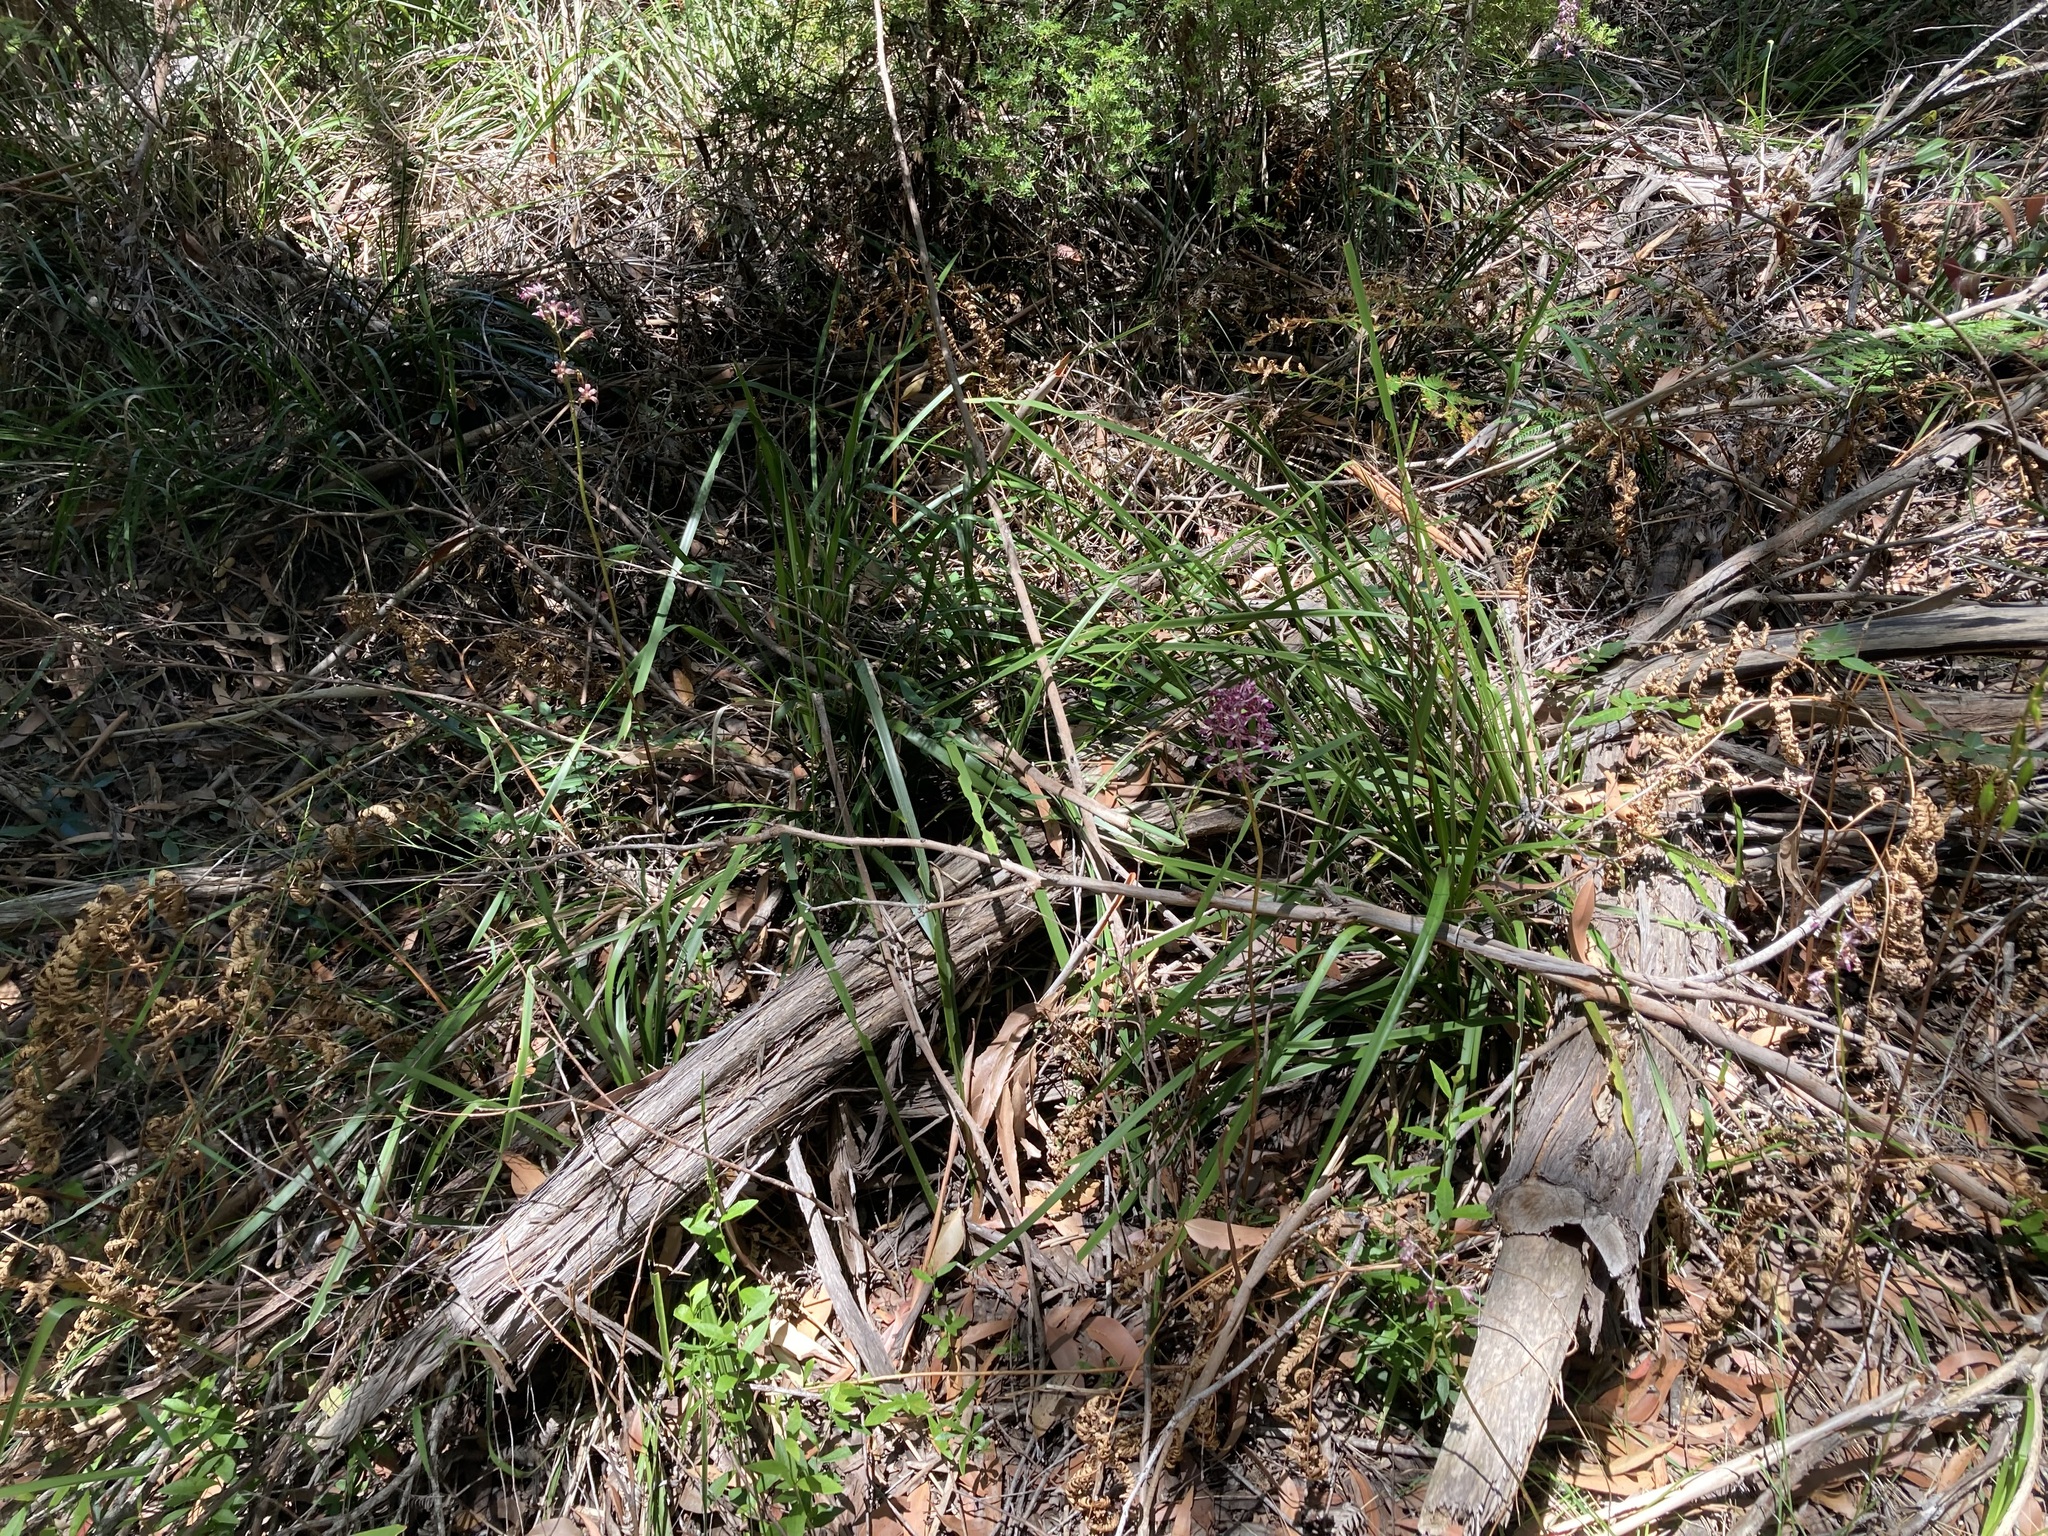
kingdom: Plantae
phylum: Tracheophyta
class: Liliopsida
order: Asparagales
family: Orchidaceae
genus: Dipodium
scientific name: Dipodium variegatum
